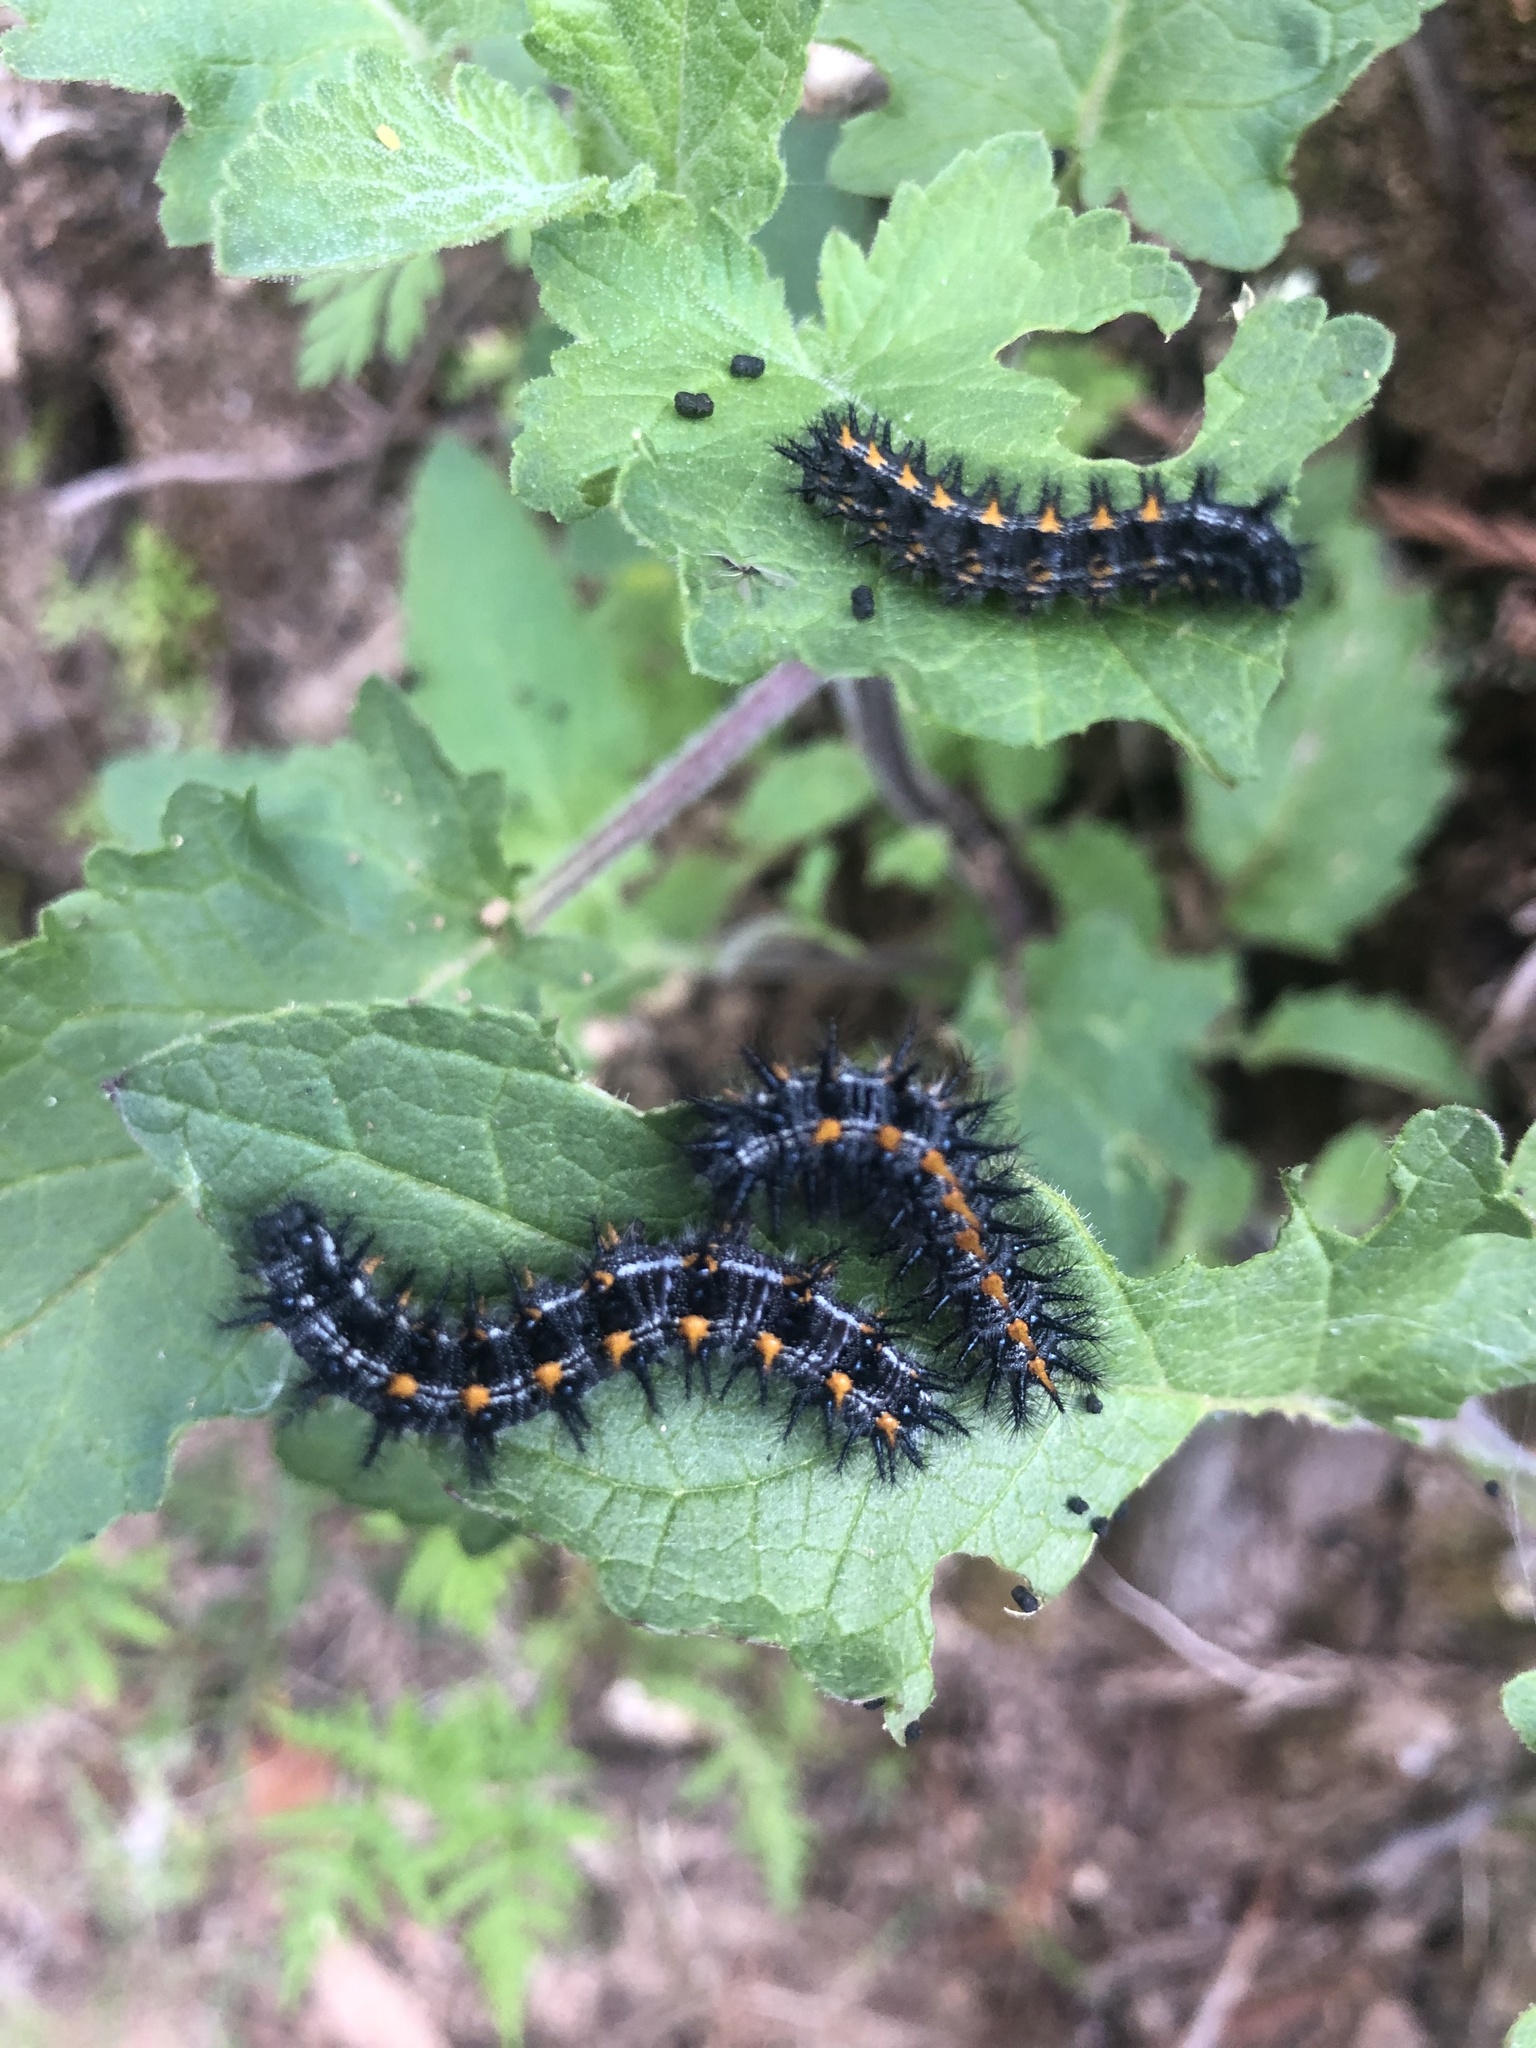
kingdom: Animalia
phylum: Arthropoda
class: Insecta
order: Lepidoptera
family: Nymphalidae
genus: Occidryas
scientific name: Occidryas chalcedona
